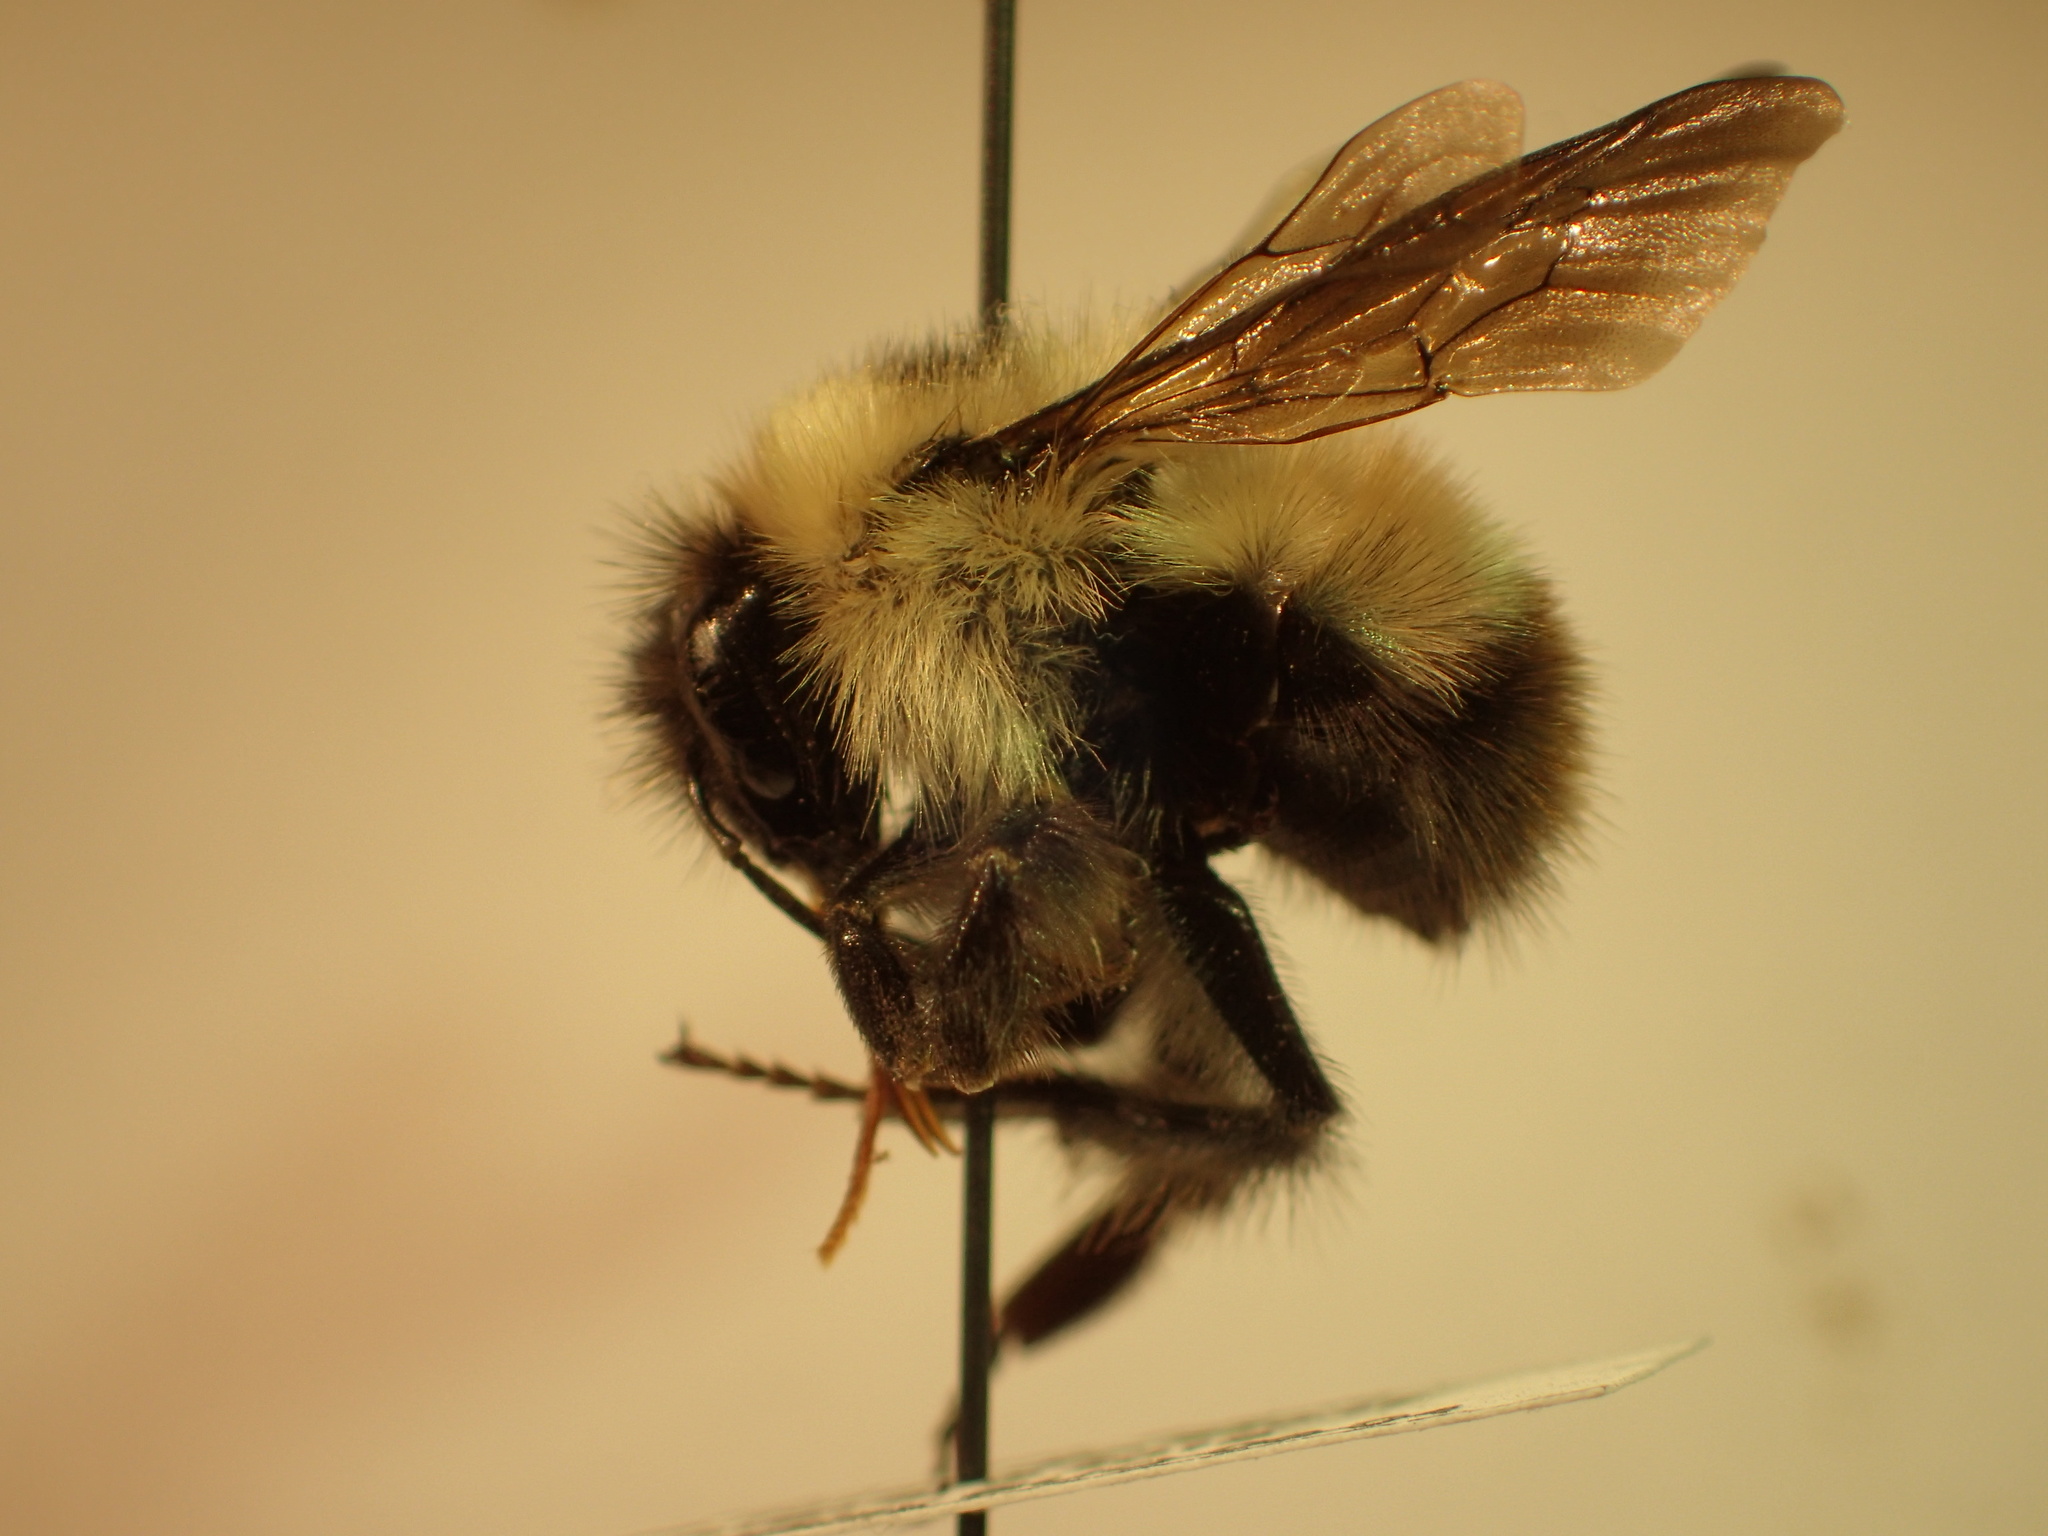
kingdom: Animalia
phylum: Arthropoda
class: Insecta
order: Hymenoptera
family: Apidae
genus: Bombus
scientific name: Bombus frigidus
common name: Frigid bumble bee
